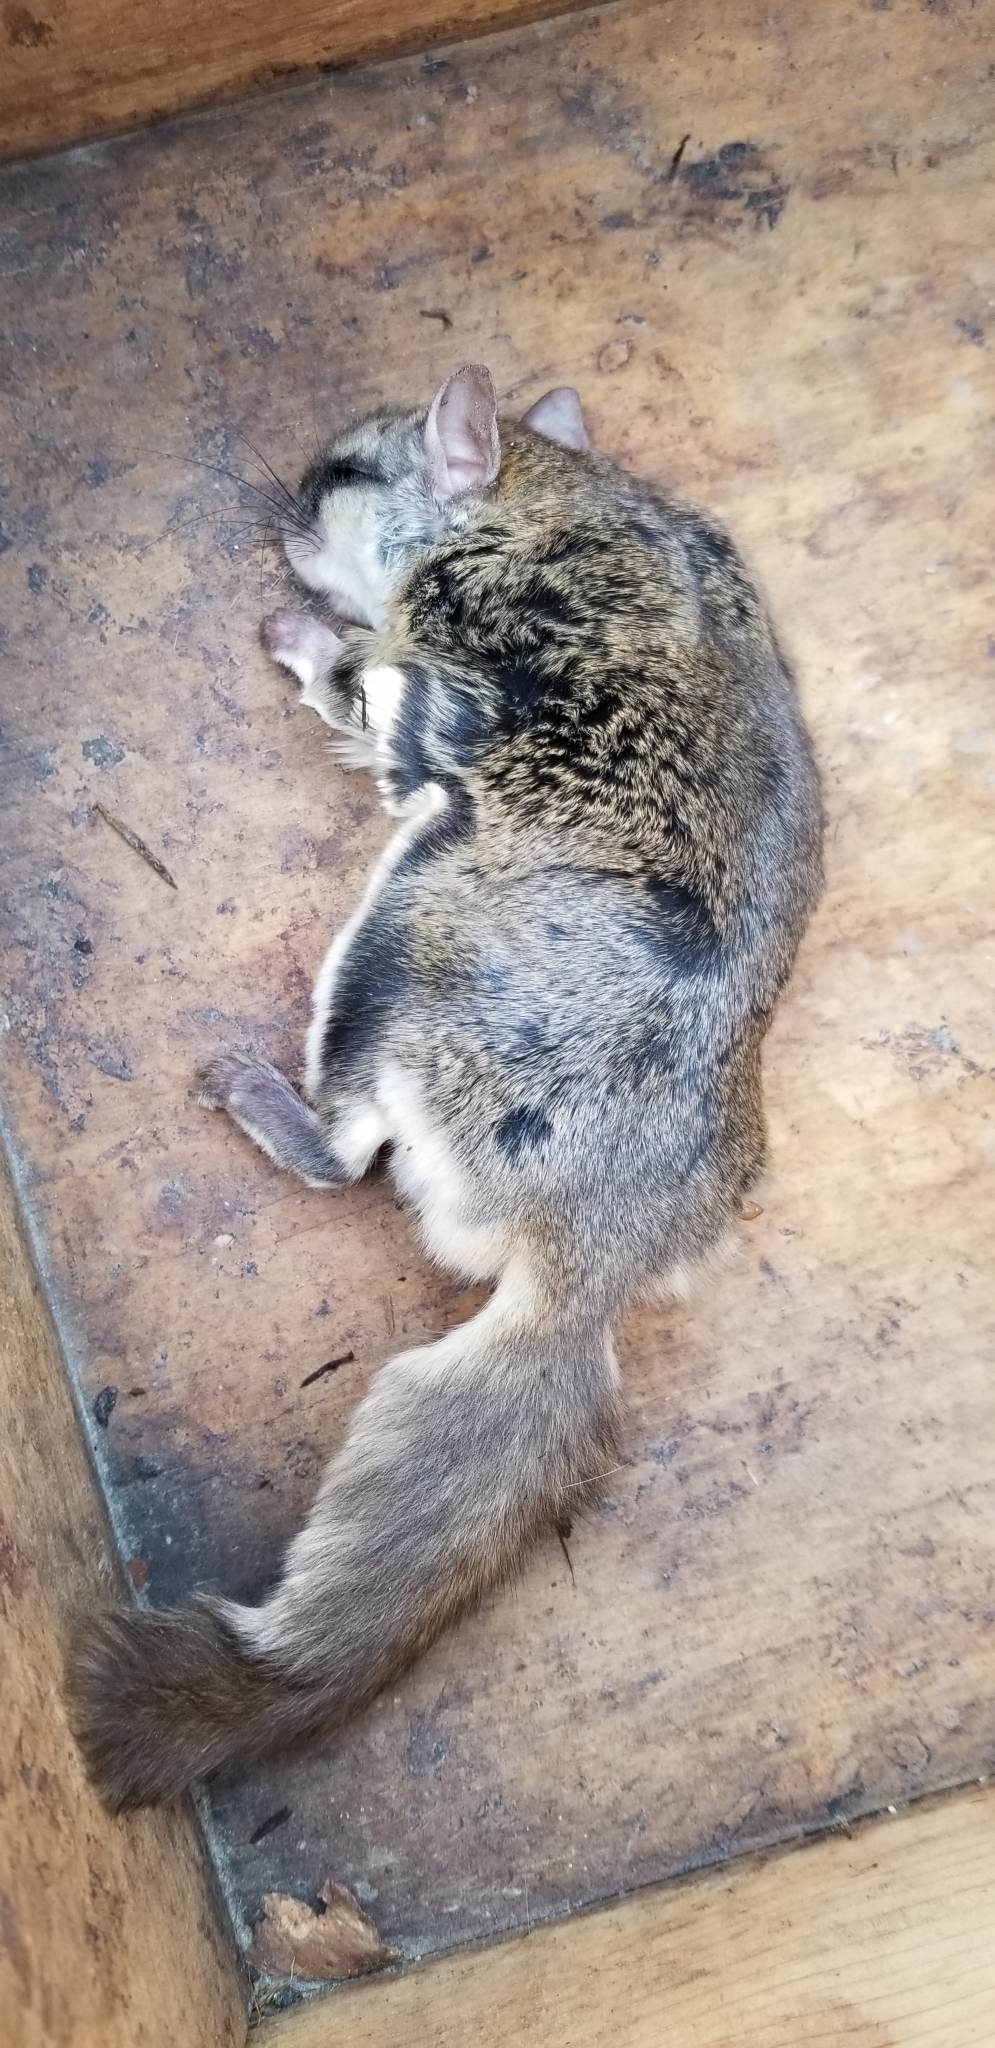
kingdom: Animalia
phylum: Chordata
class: Mammalia
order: Rodentia
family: Sciuridae
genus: Glaucomys
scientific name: Glaucomys volans
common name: Southern flying squirrel
